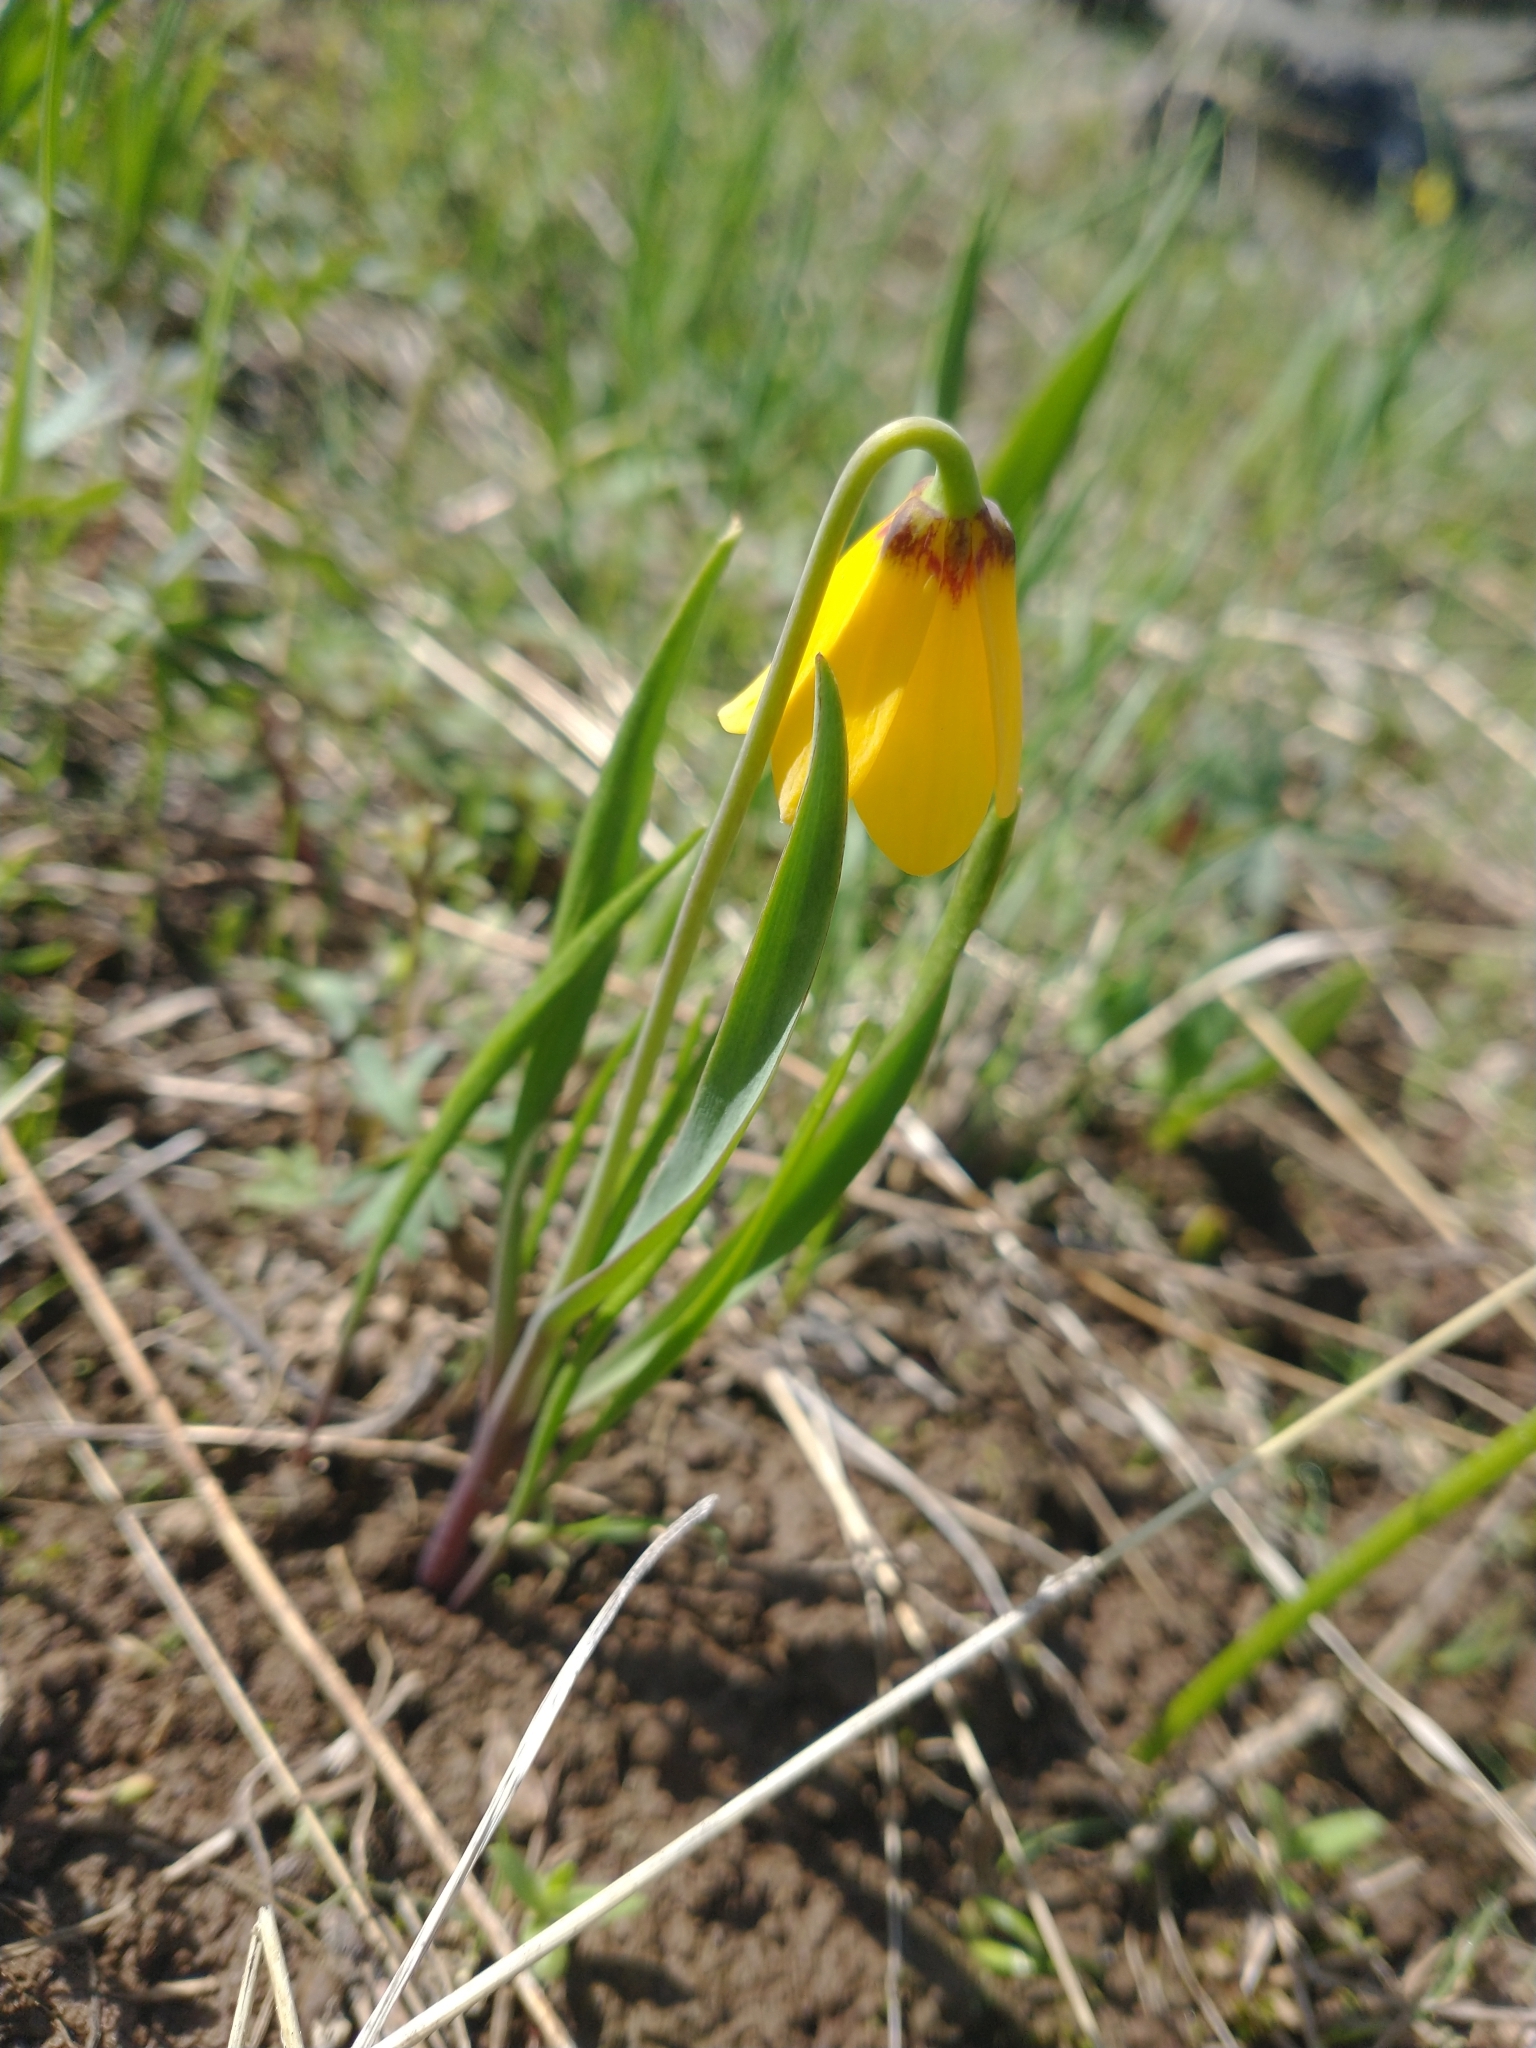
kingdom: Plantae
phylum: Tracheophyta
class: Liliopsida
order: Liliales
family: Liliaceae
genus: Fritillaria
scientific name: Fritillaria pudica
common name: Yellow fritillary
